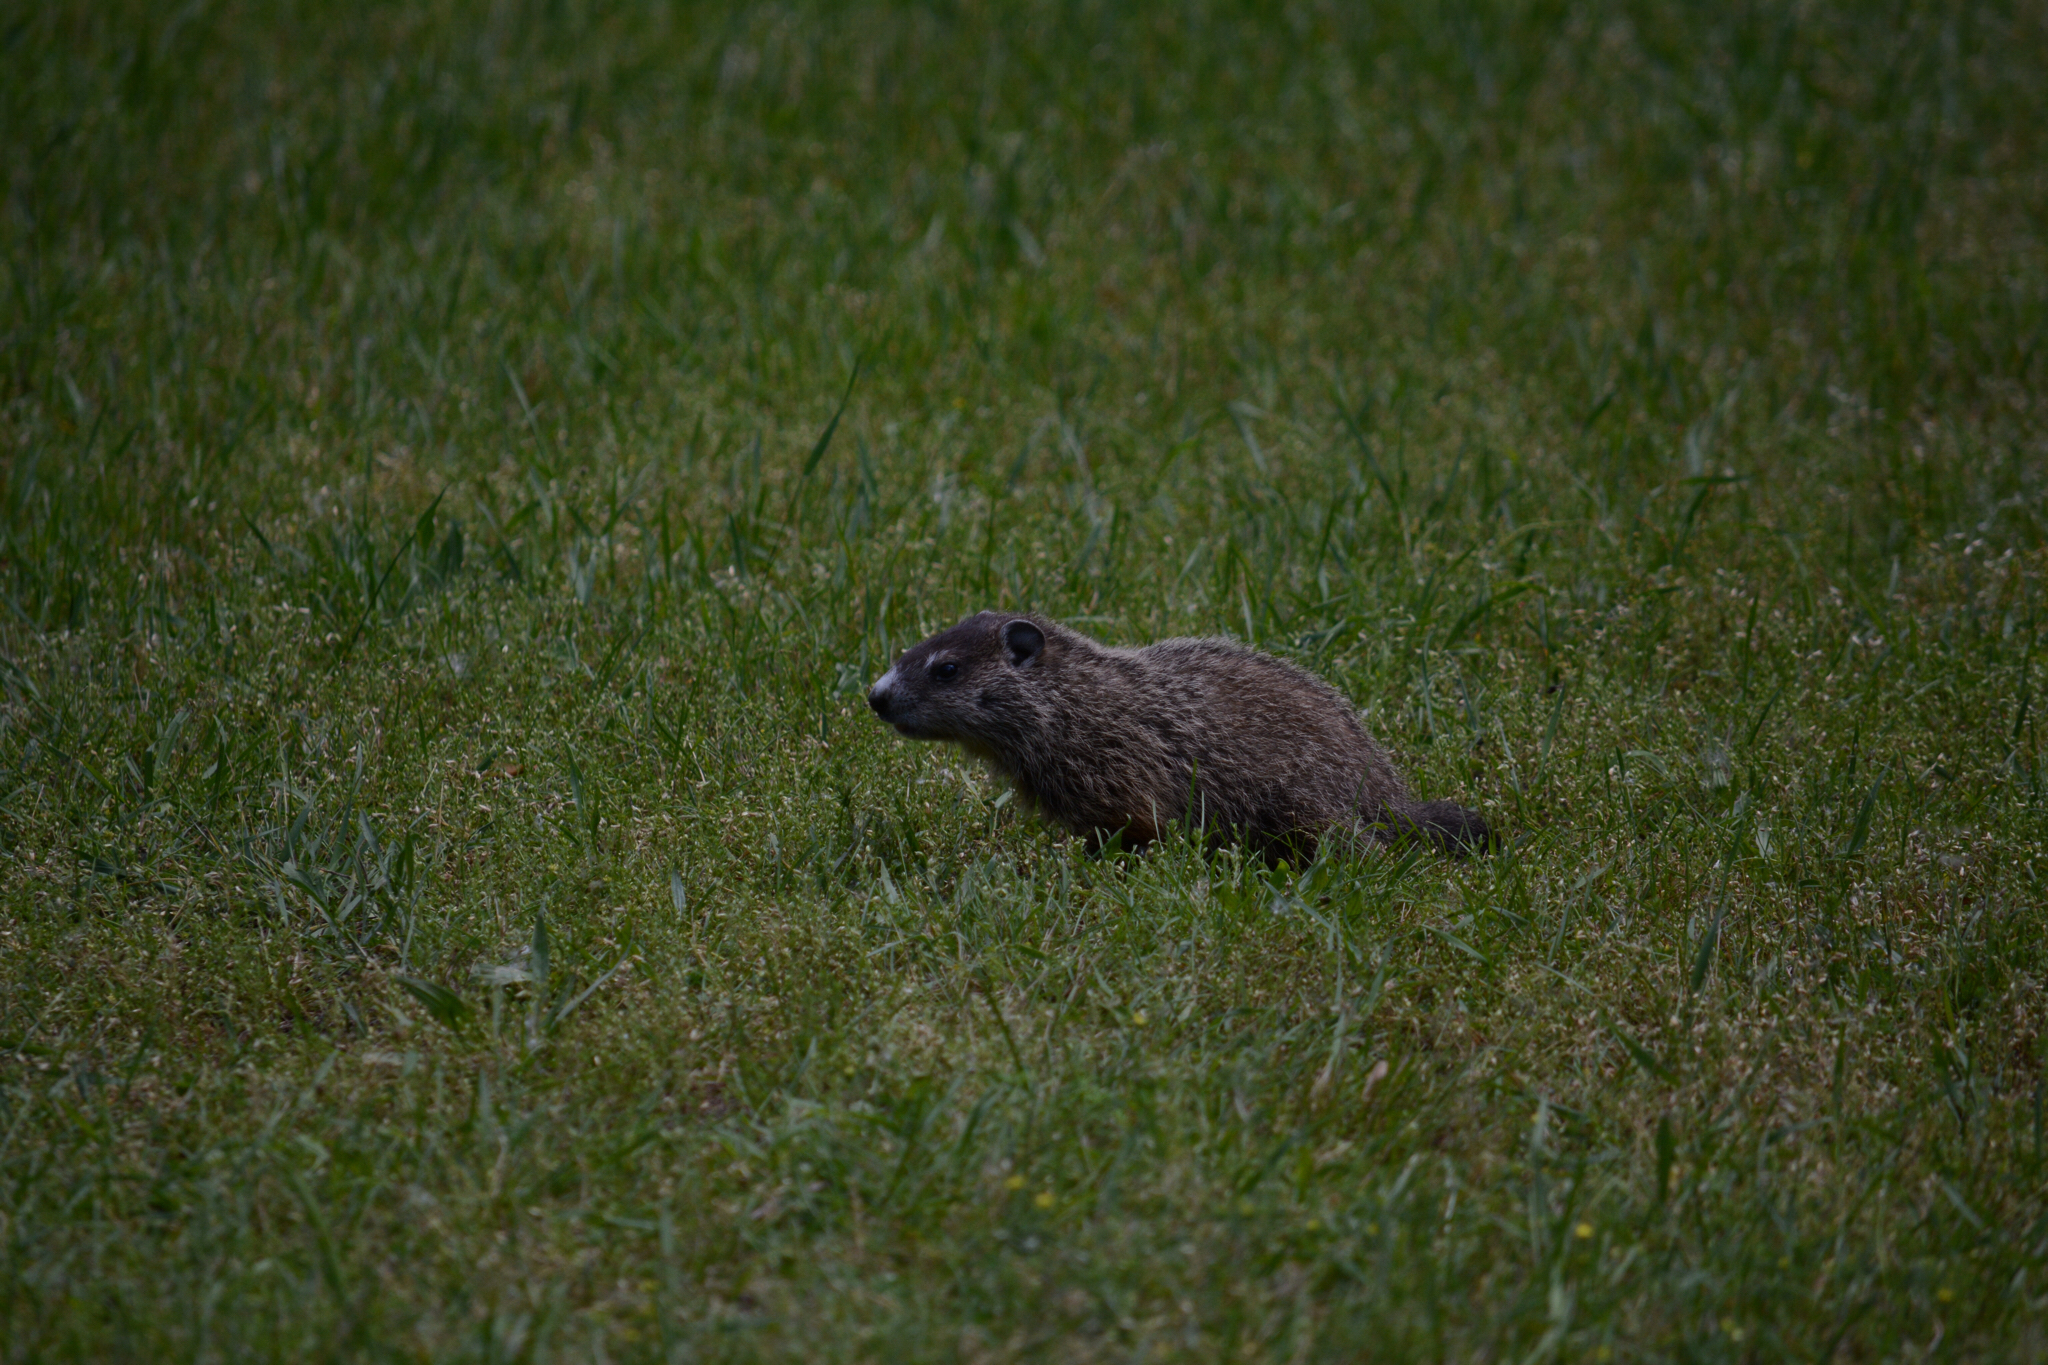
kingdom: Animalia
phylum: Chordata
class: Mammalia
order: Rodentia
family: Sciuridae
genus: Marmota
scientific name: Marmota monax
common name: Groundhog
